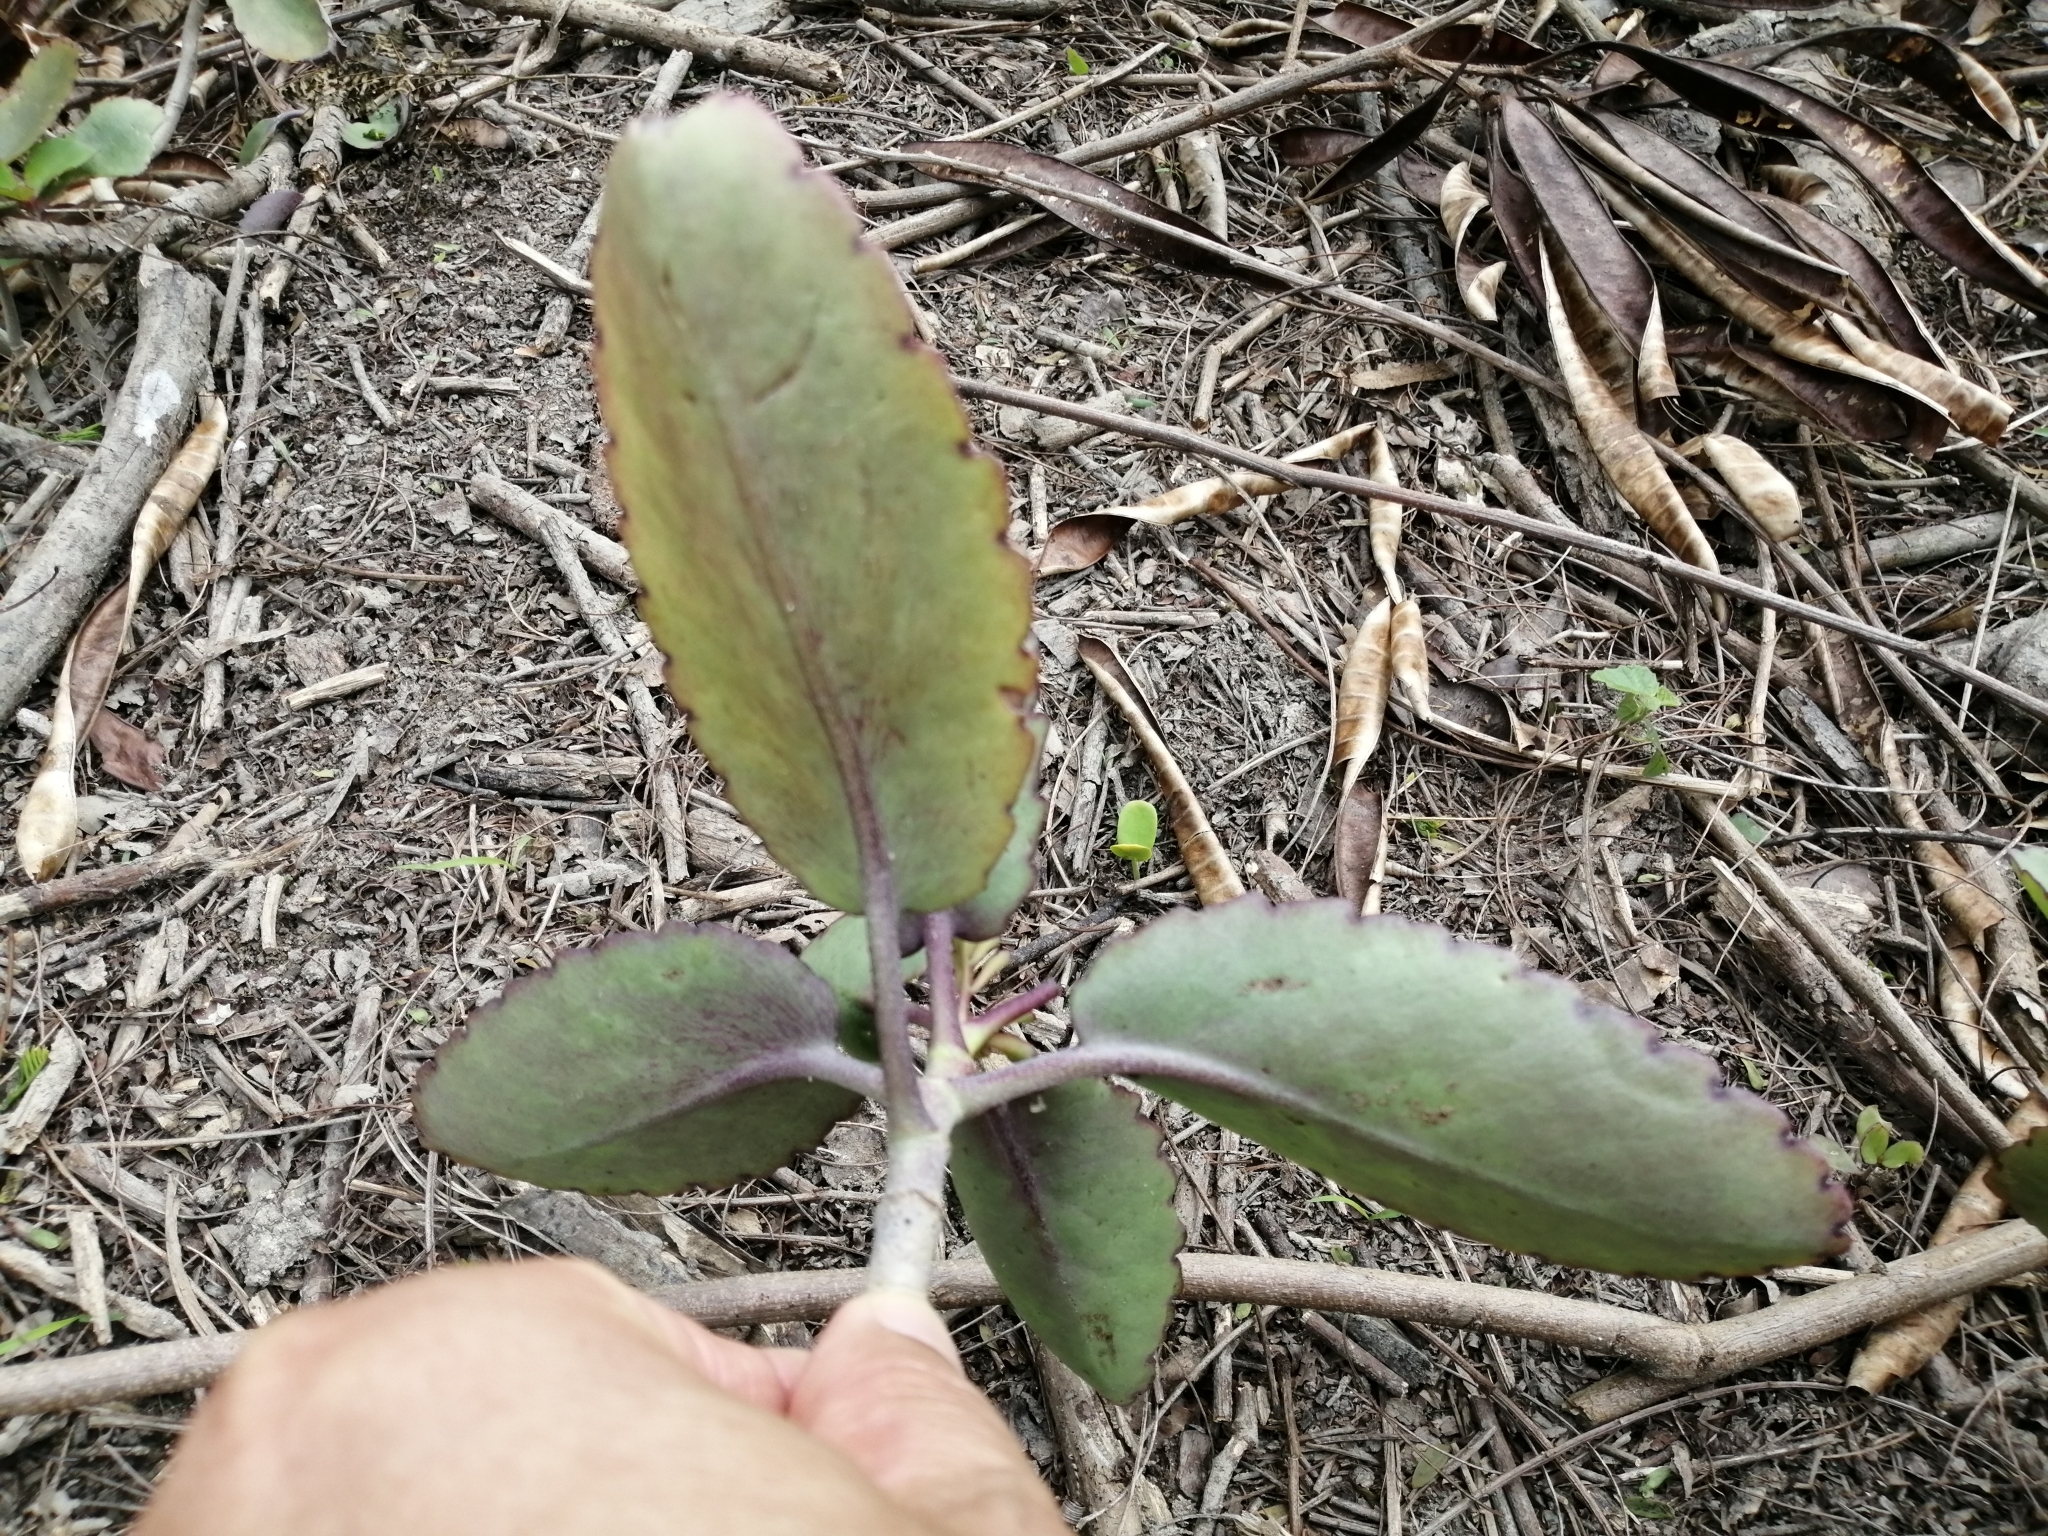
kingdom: Plantae
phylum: Tracheophyta
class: Magnoliopsida
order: Saxifragales
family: Crassulaceae
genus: Kalanchoe
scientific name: Kalanchoe pinnata
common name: Cathedral bells
